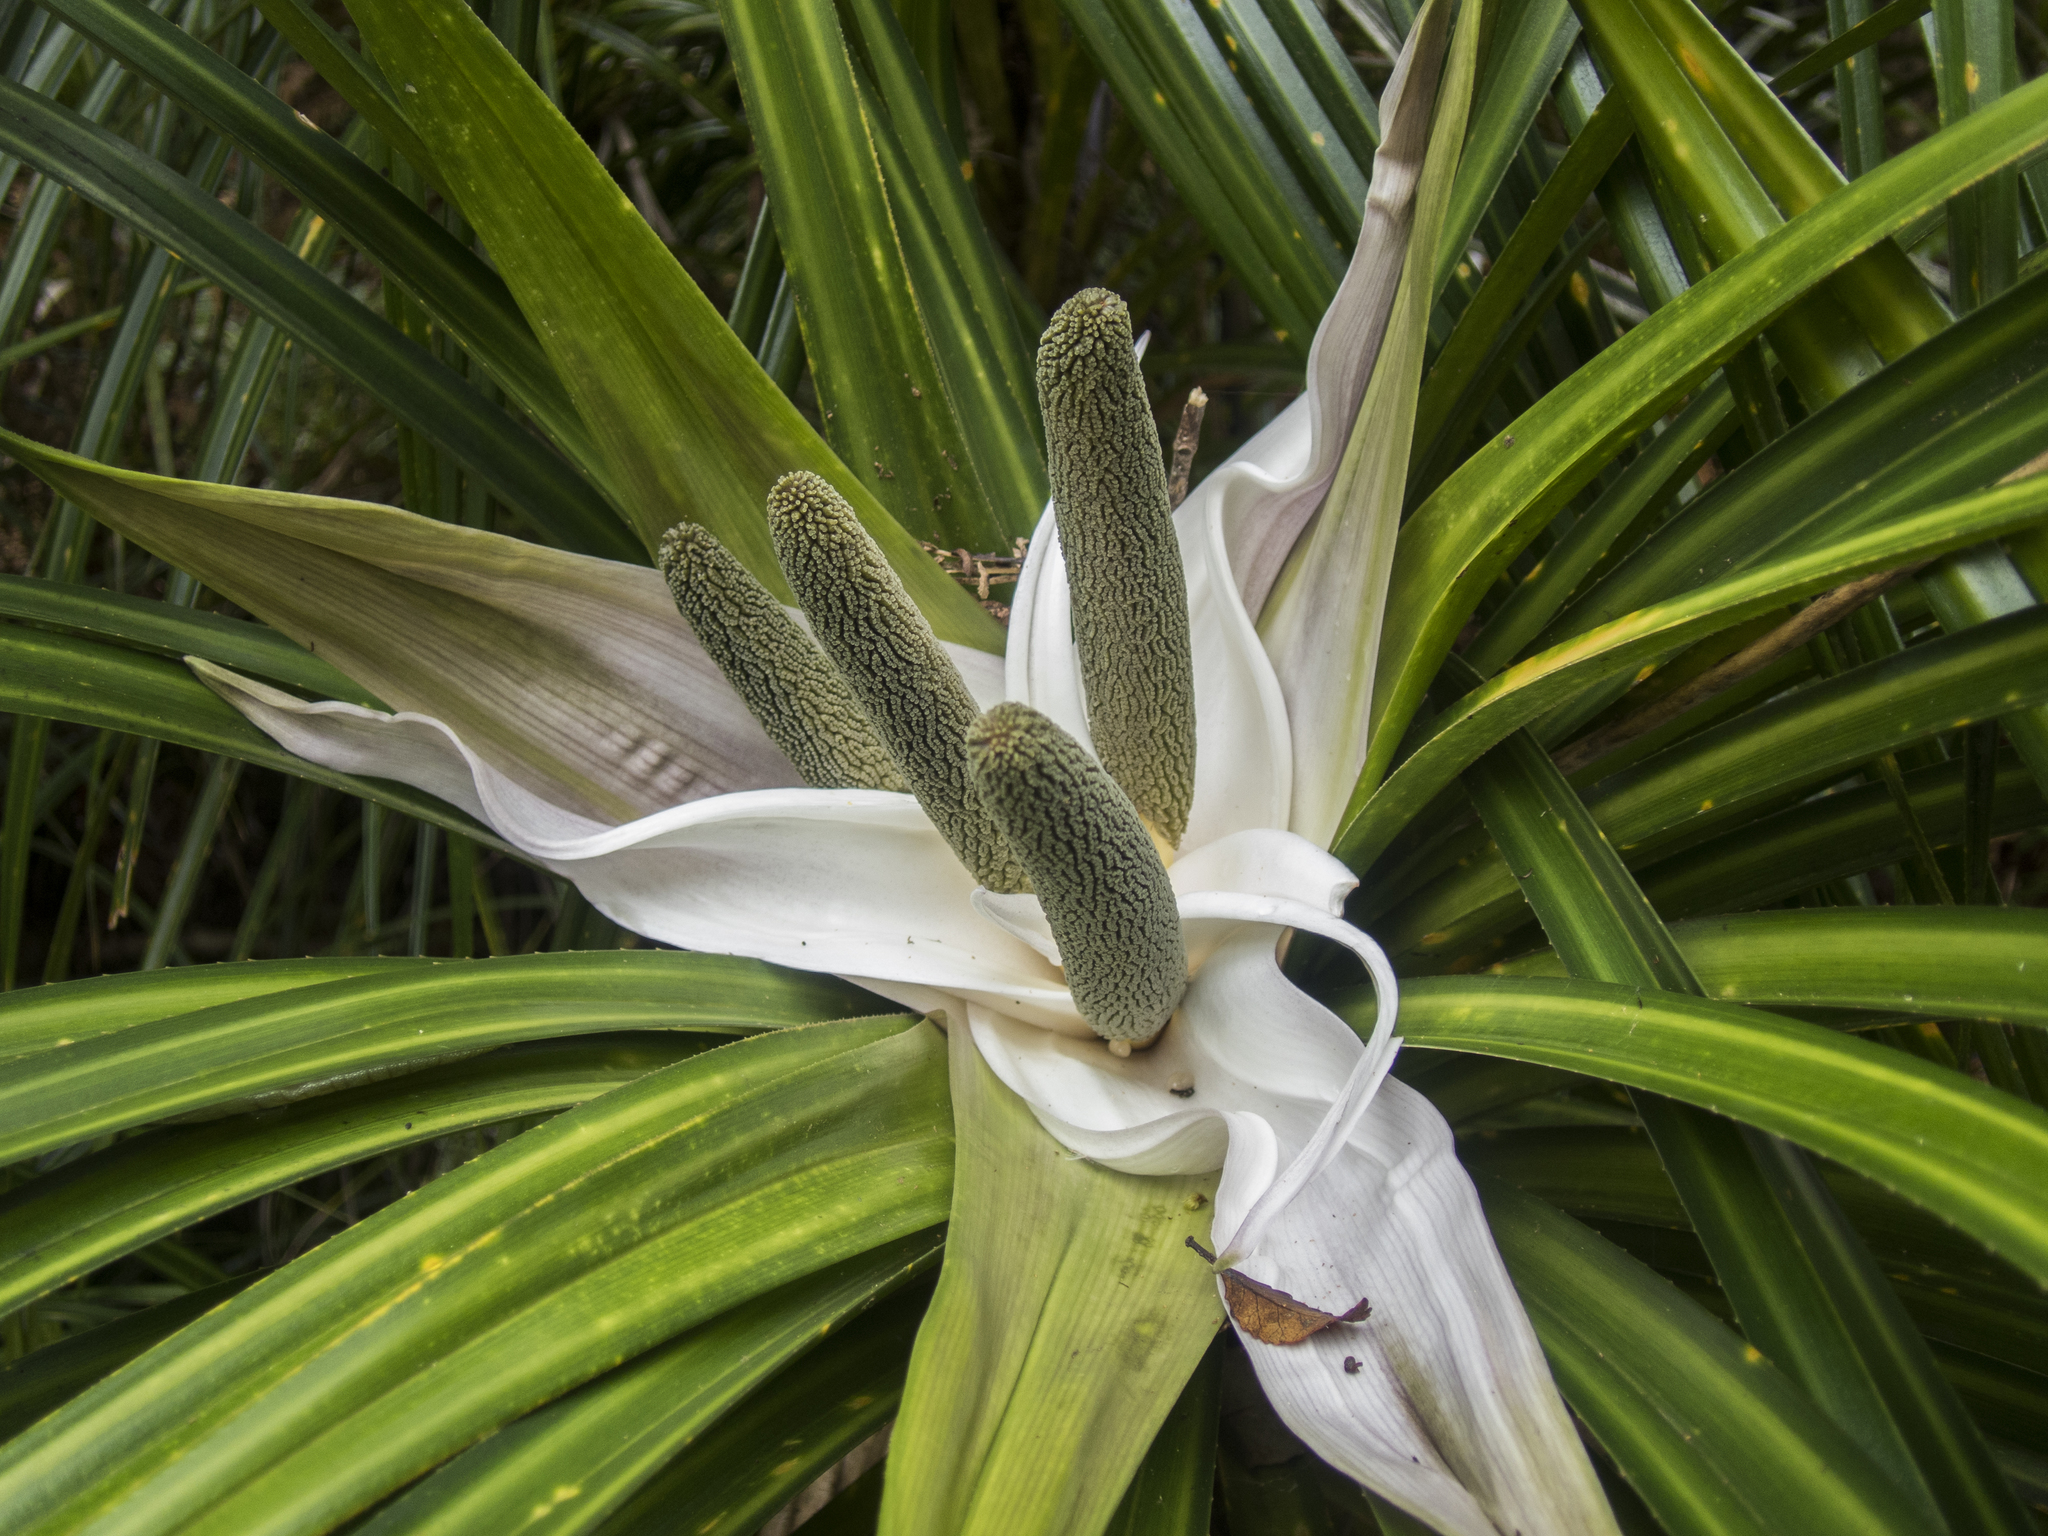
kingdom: Plantae
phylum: Tracheophyta
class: Liliopsida
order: Pandanales
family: Pandanaceae
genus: Freycinetia
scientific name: Freycinetia banksii
